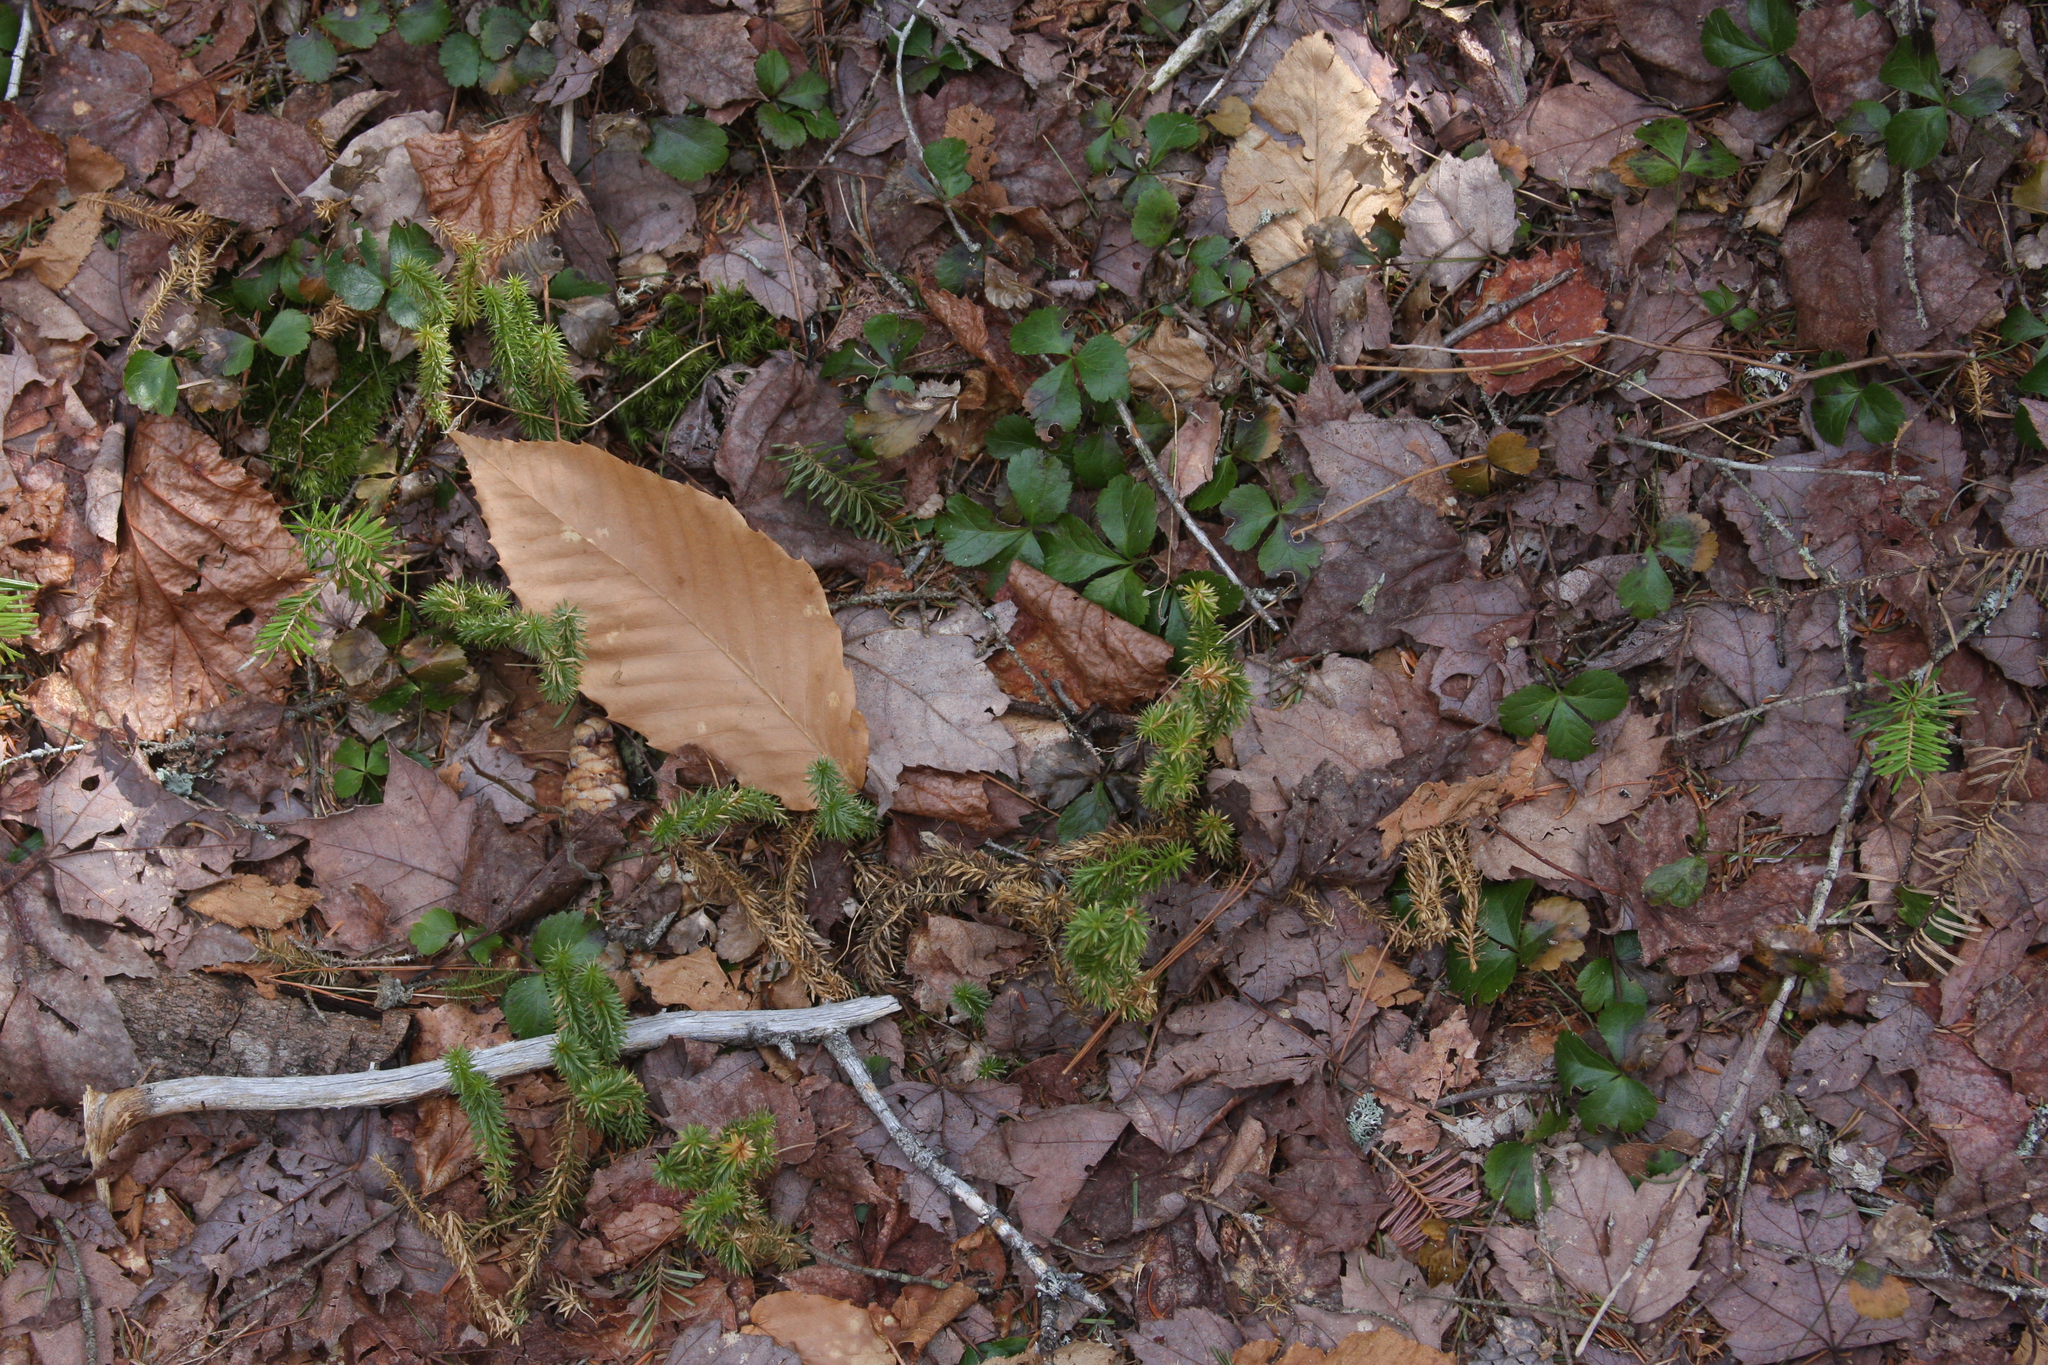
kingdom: Plantae
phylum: Tracheophyta
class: Lycopodiopsida
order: Lycopodiales
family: Lycopodiaceae
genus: Huperzia
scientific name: Huperzia lucidula
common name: Shining clubmoss
